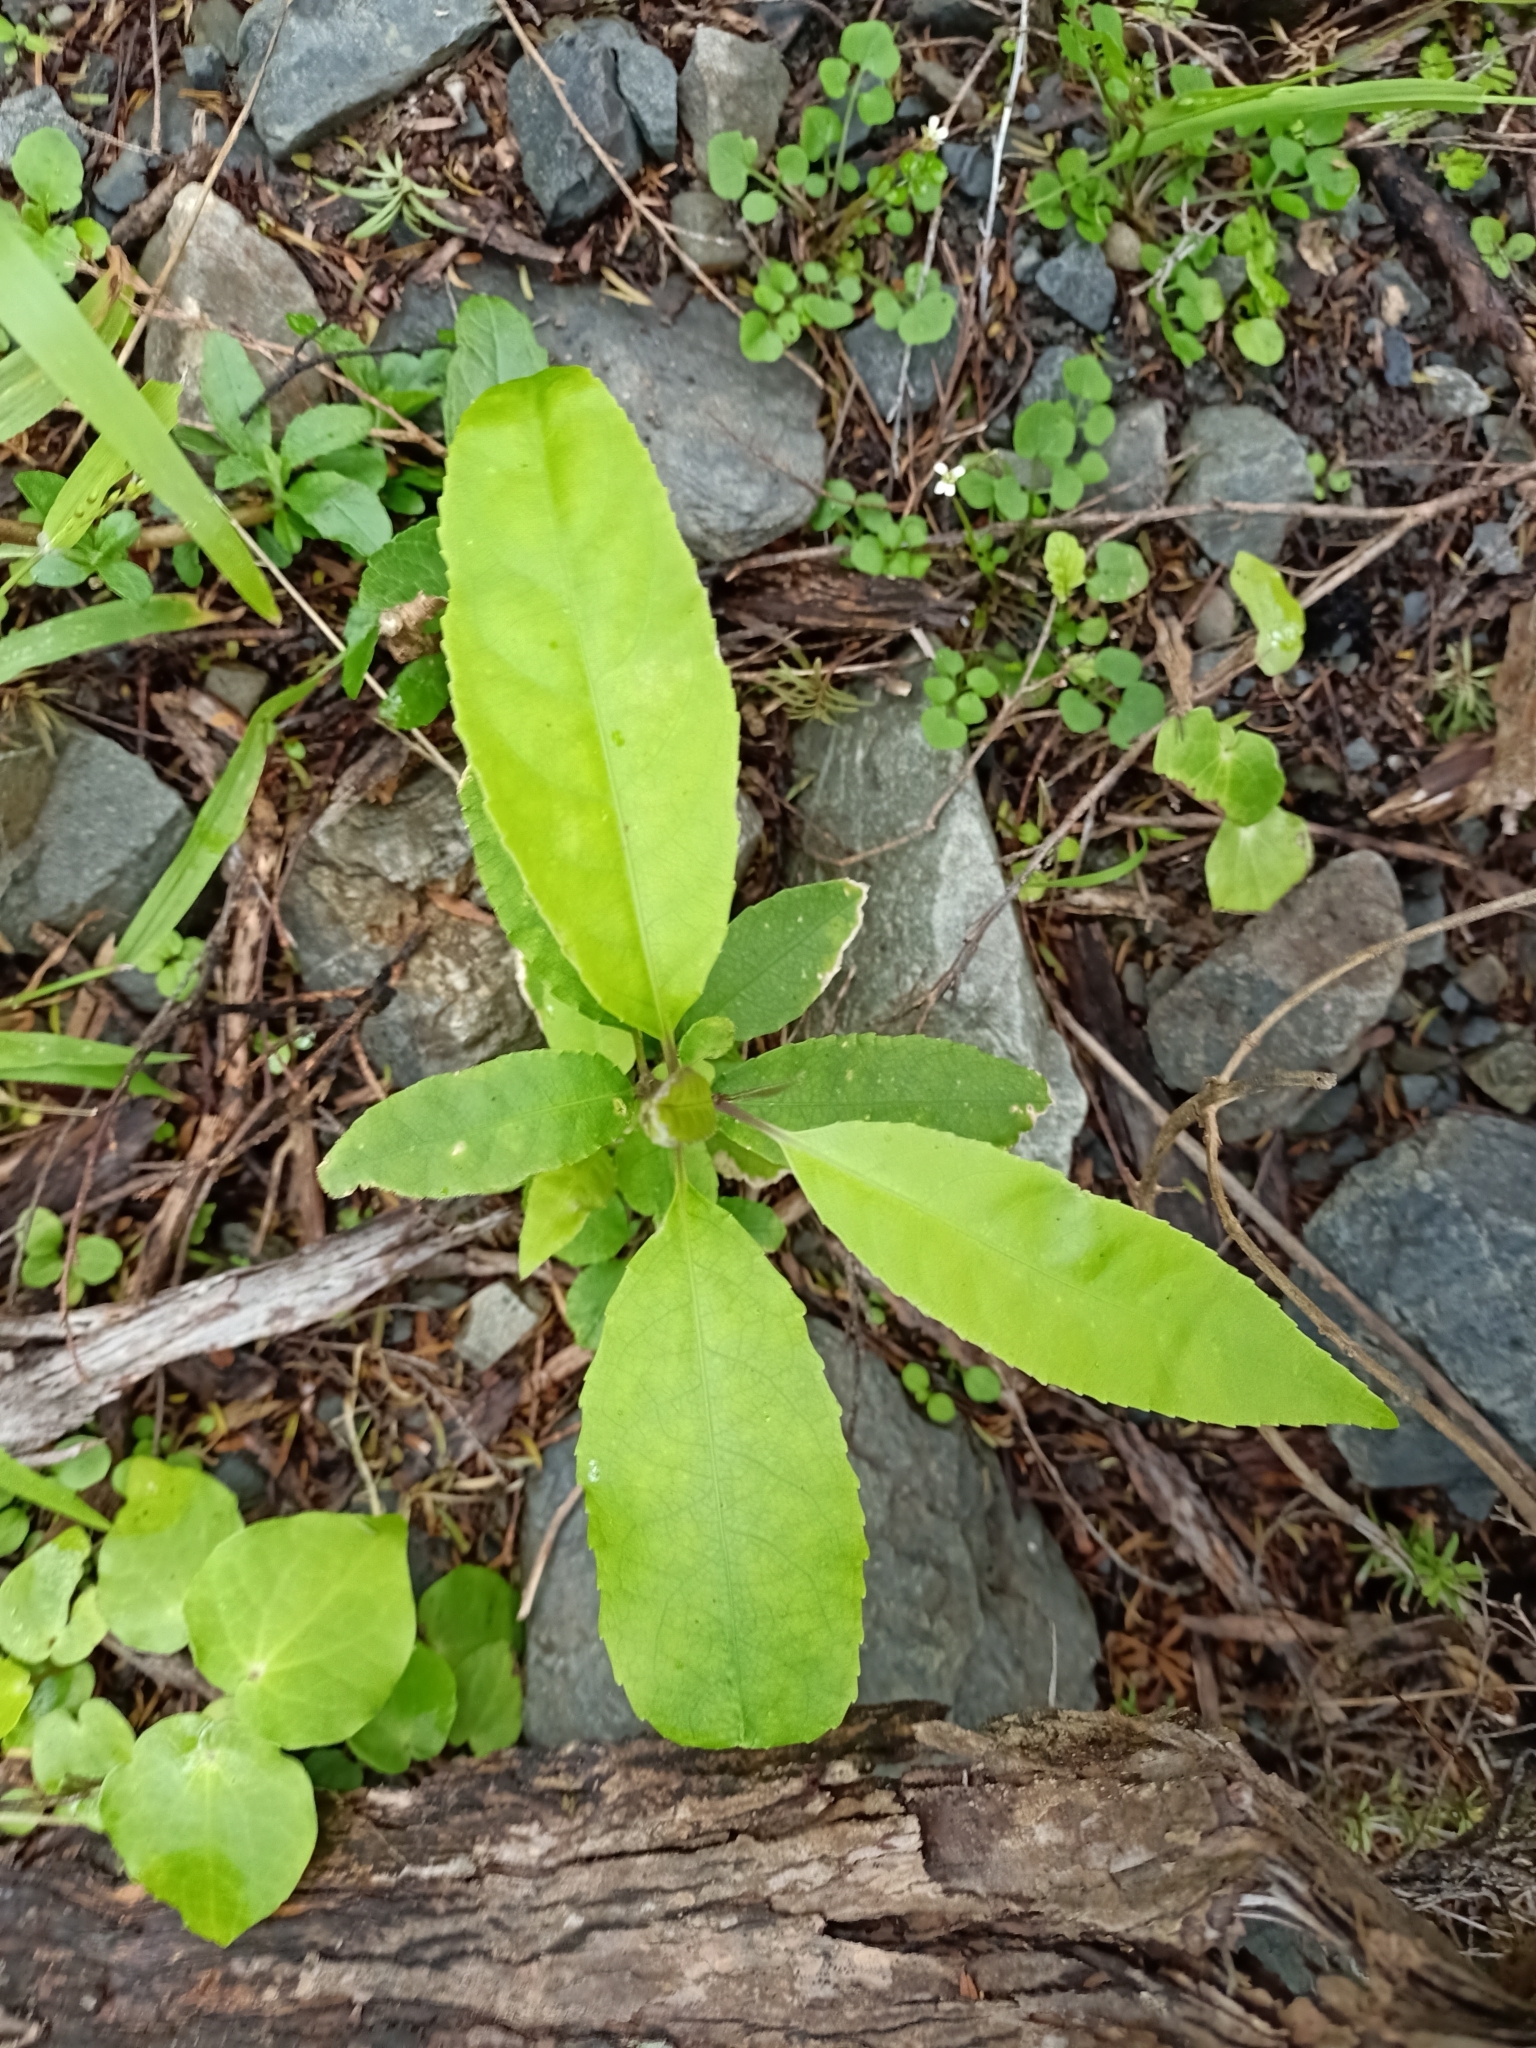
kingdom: Plantae
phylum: Tracheophyta
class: Magnoliopsida
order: Malpighiales
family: Violaceae
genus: Melicytus
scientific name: Melicytus ramiflorus
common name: Mahoe
